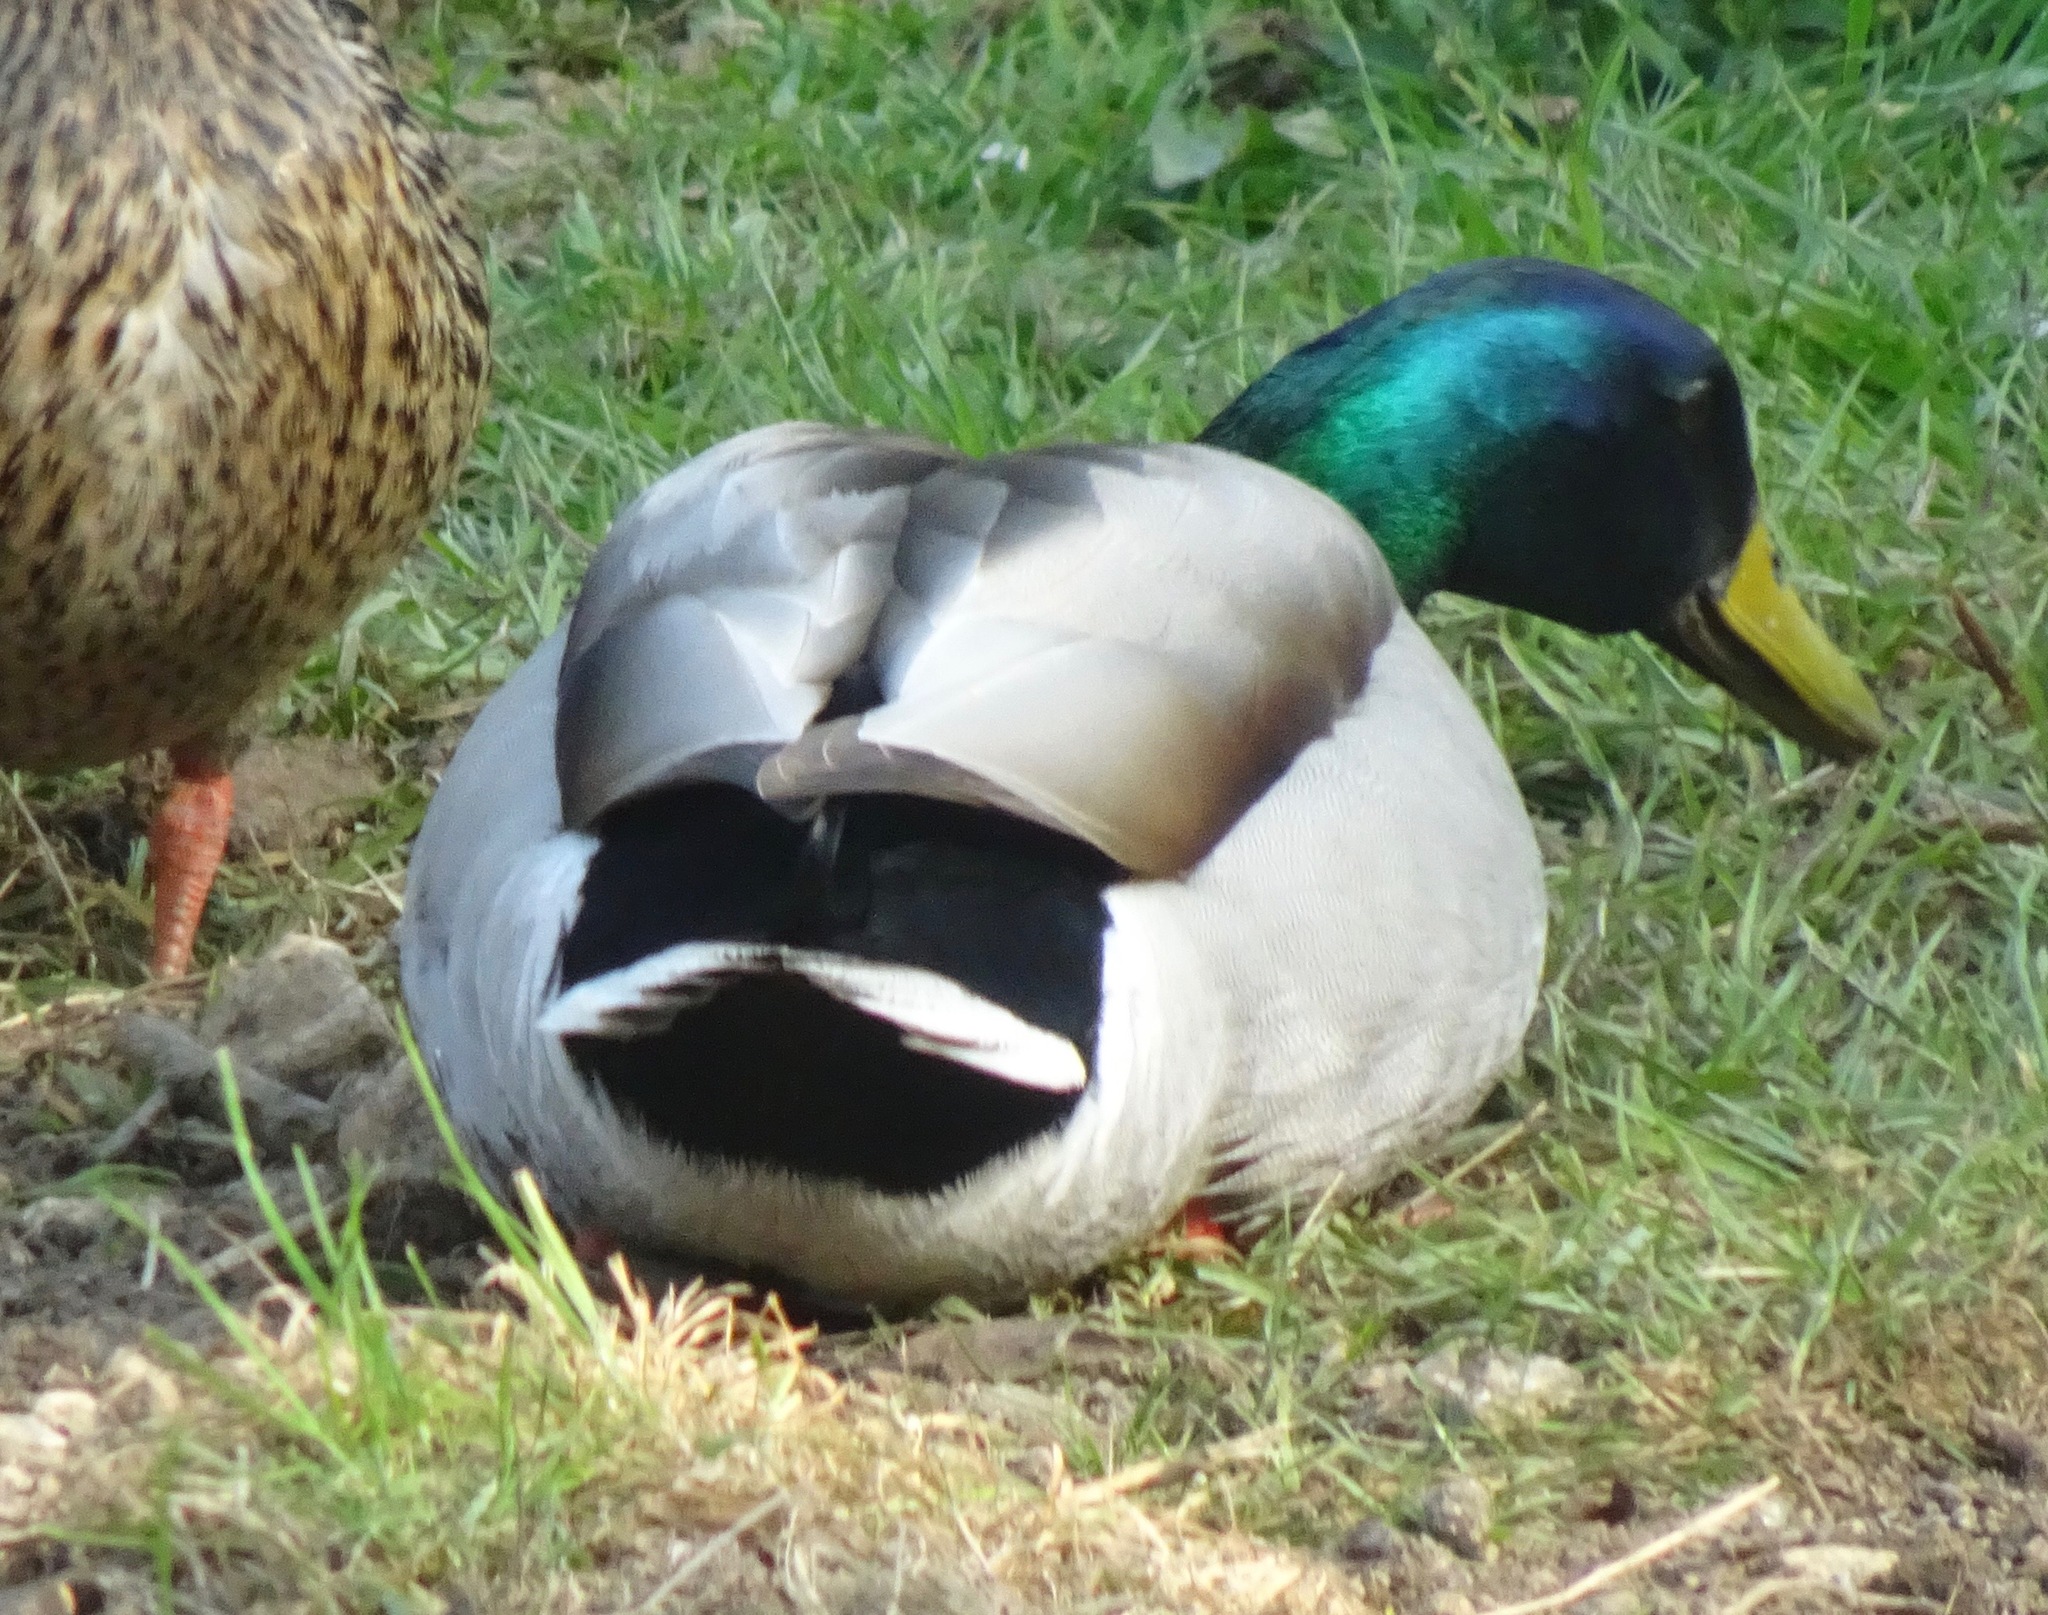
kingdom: Animalia
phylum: Chordata
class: Aves
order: Anseriformes
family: Anatidae
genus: Anas
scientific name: Anas platyrhynchos
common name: Mallard
